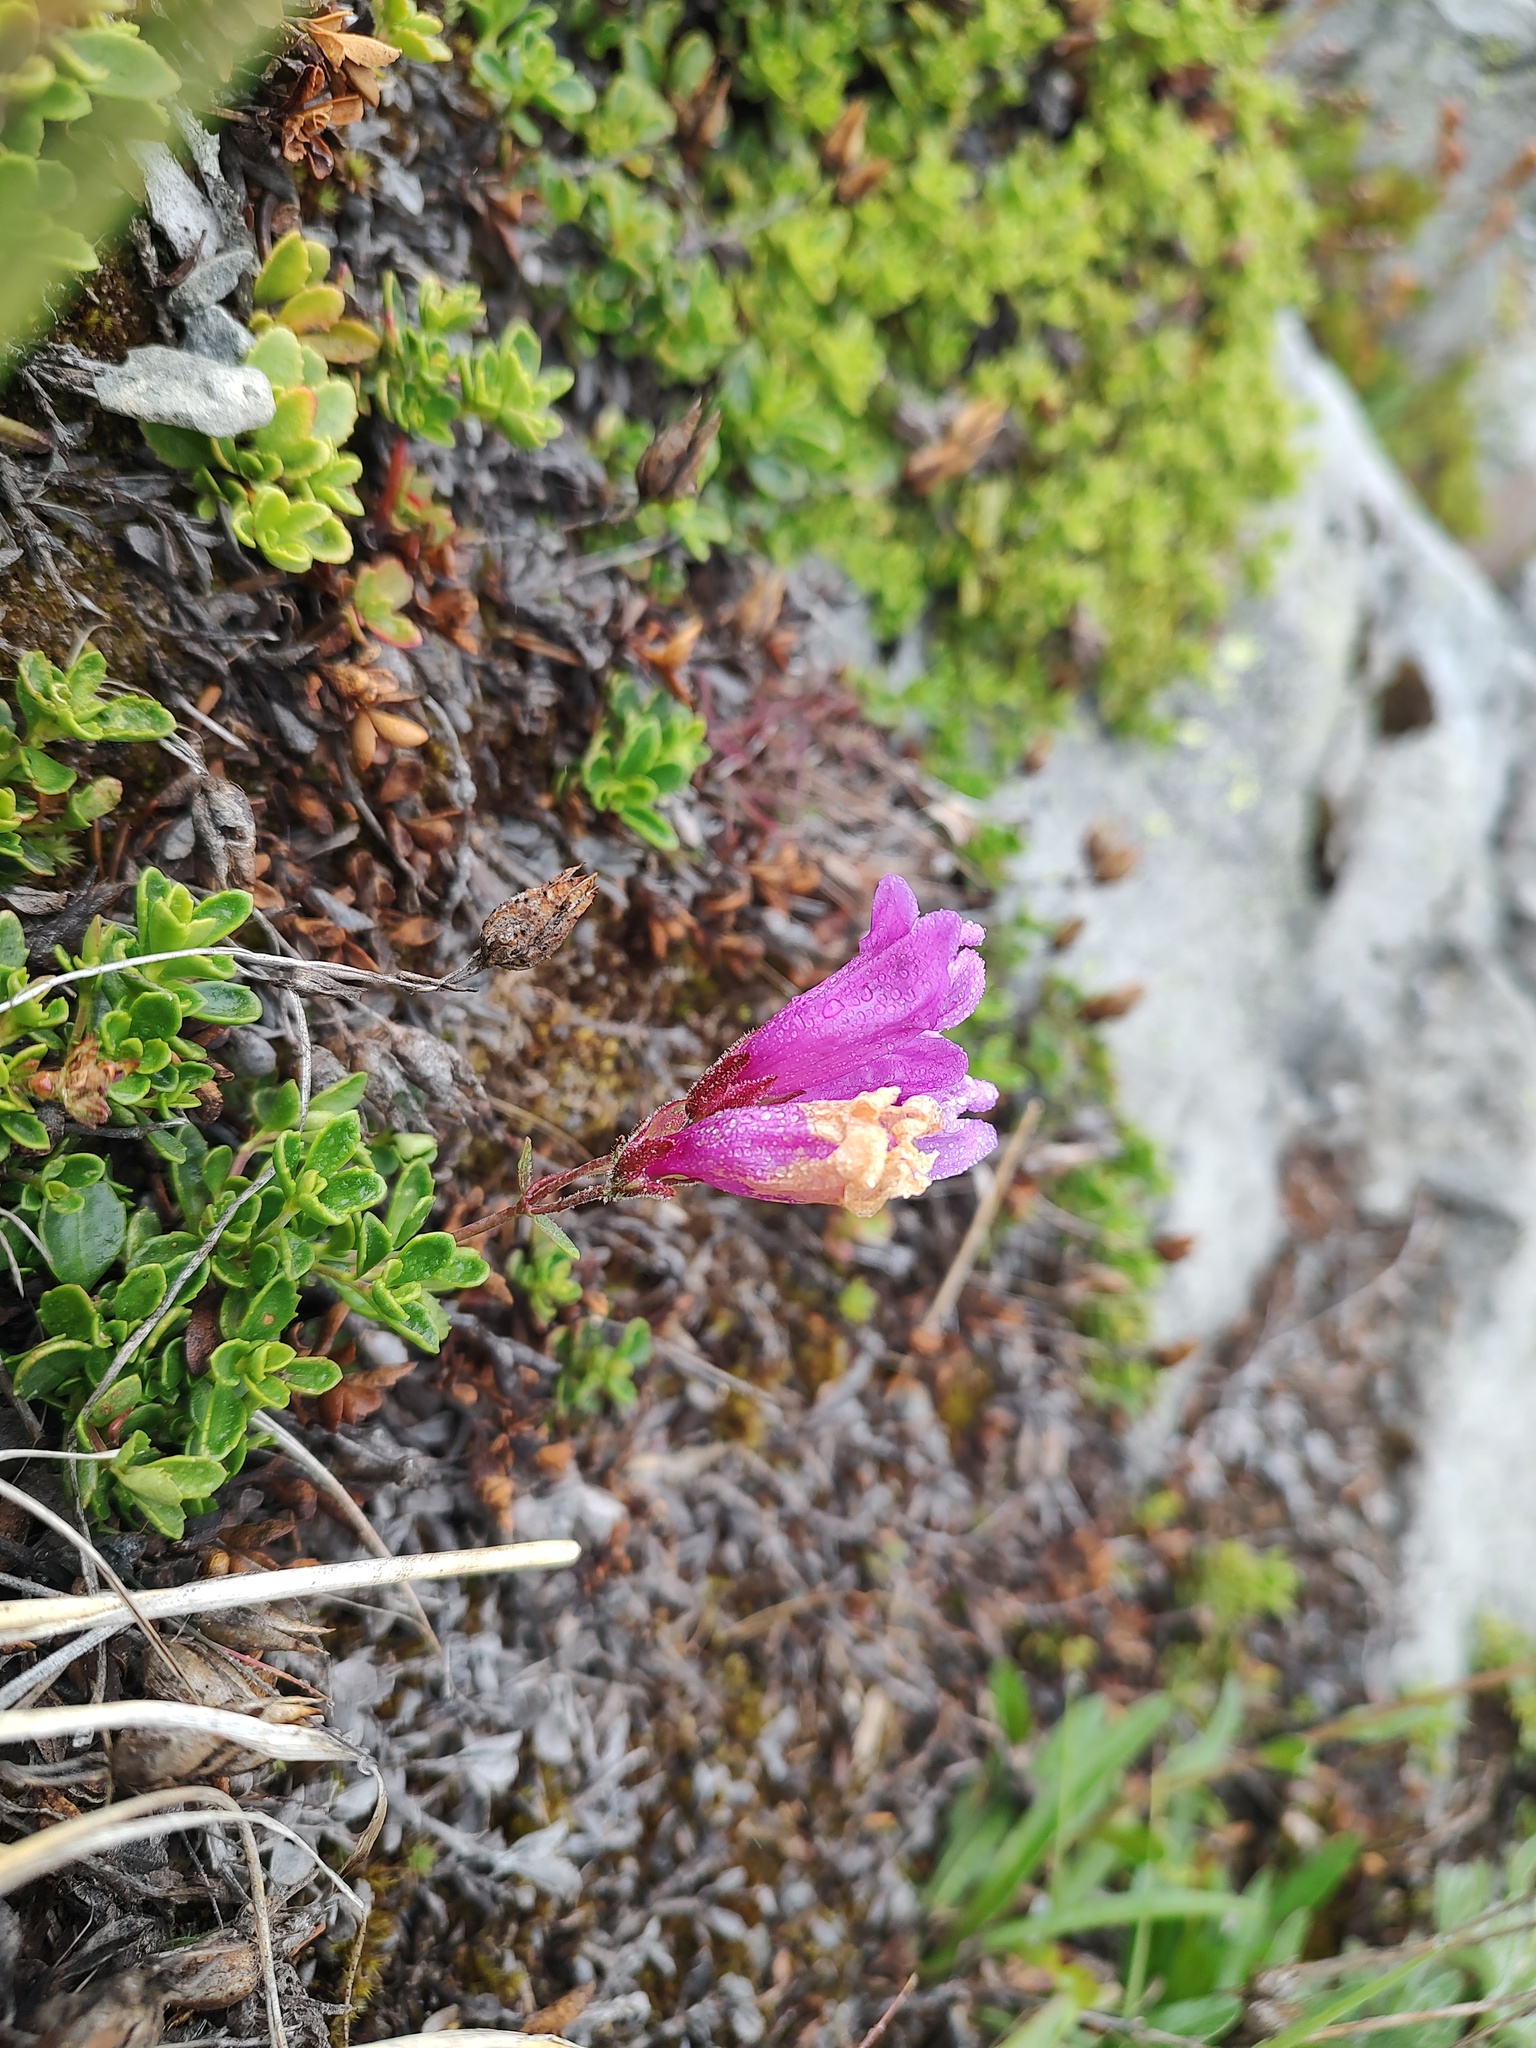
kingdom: Plantae
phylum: Tracheophyta
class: Magnoliopsida
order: Lamiales
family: Plantaginaceae
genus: Penstemon
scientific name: Penstemon davidsonii
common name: Davidson's penstemon
